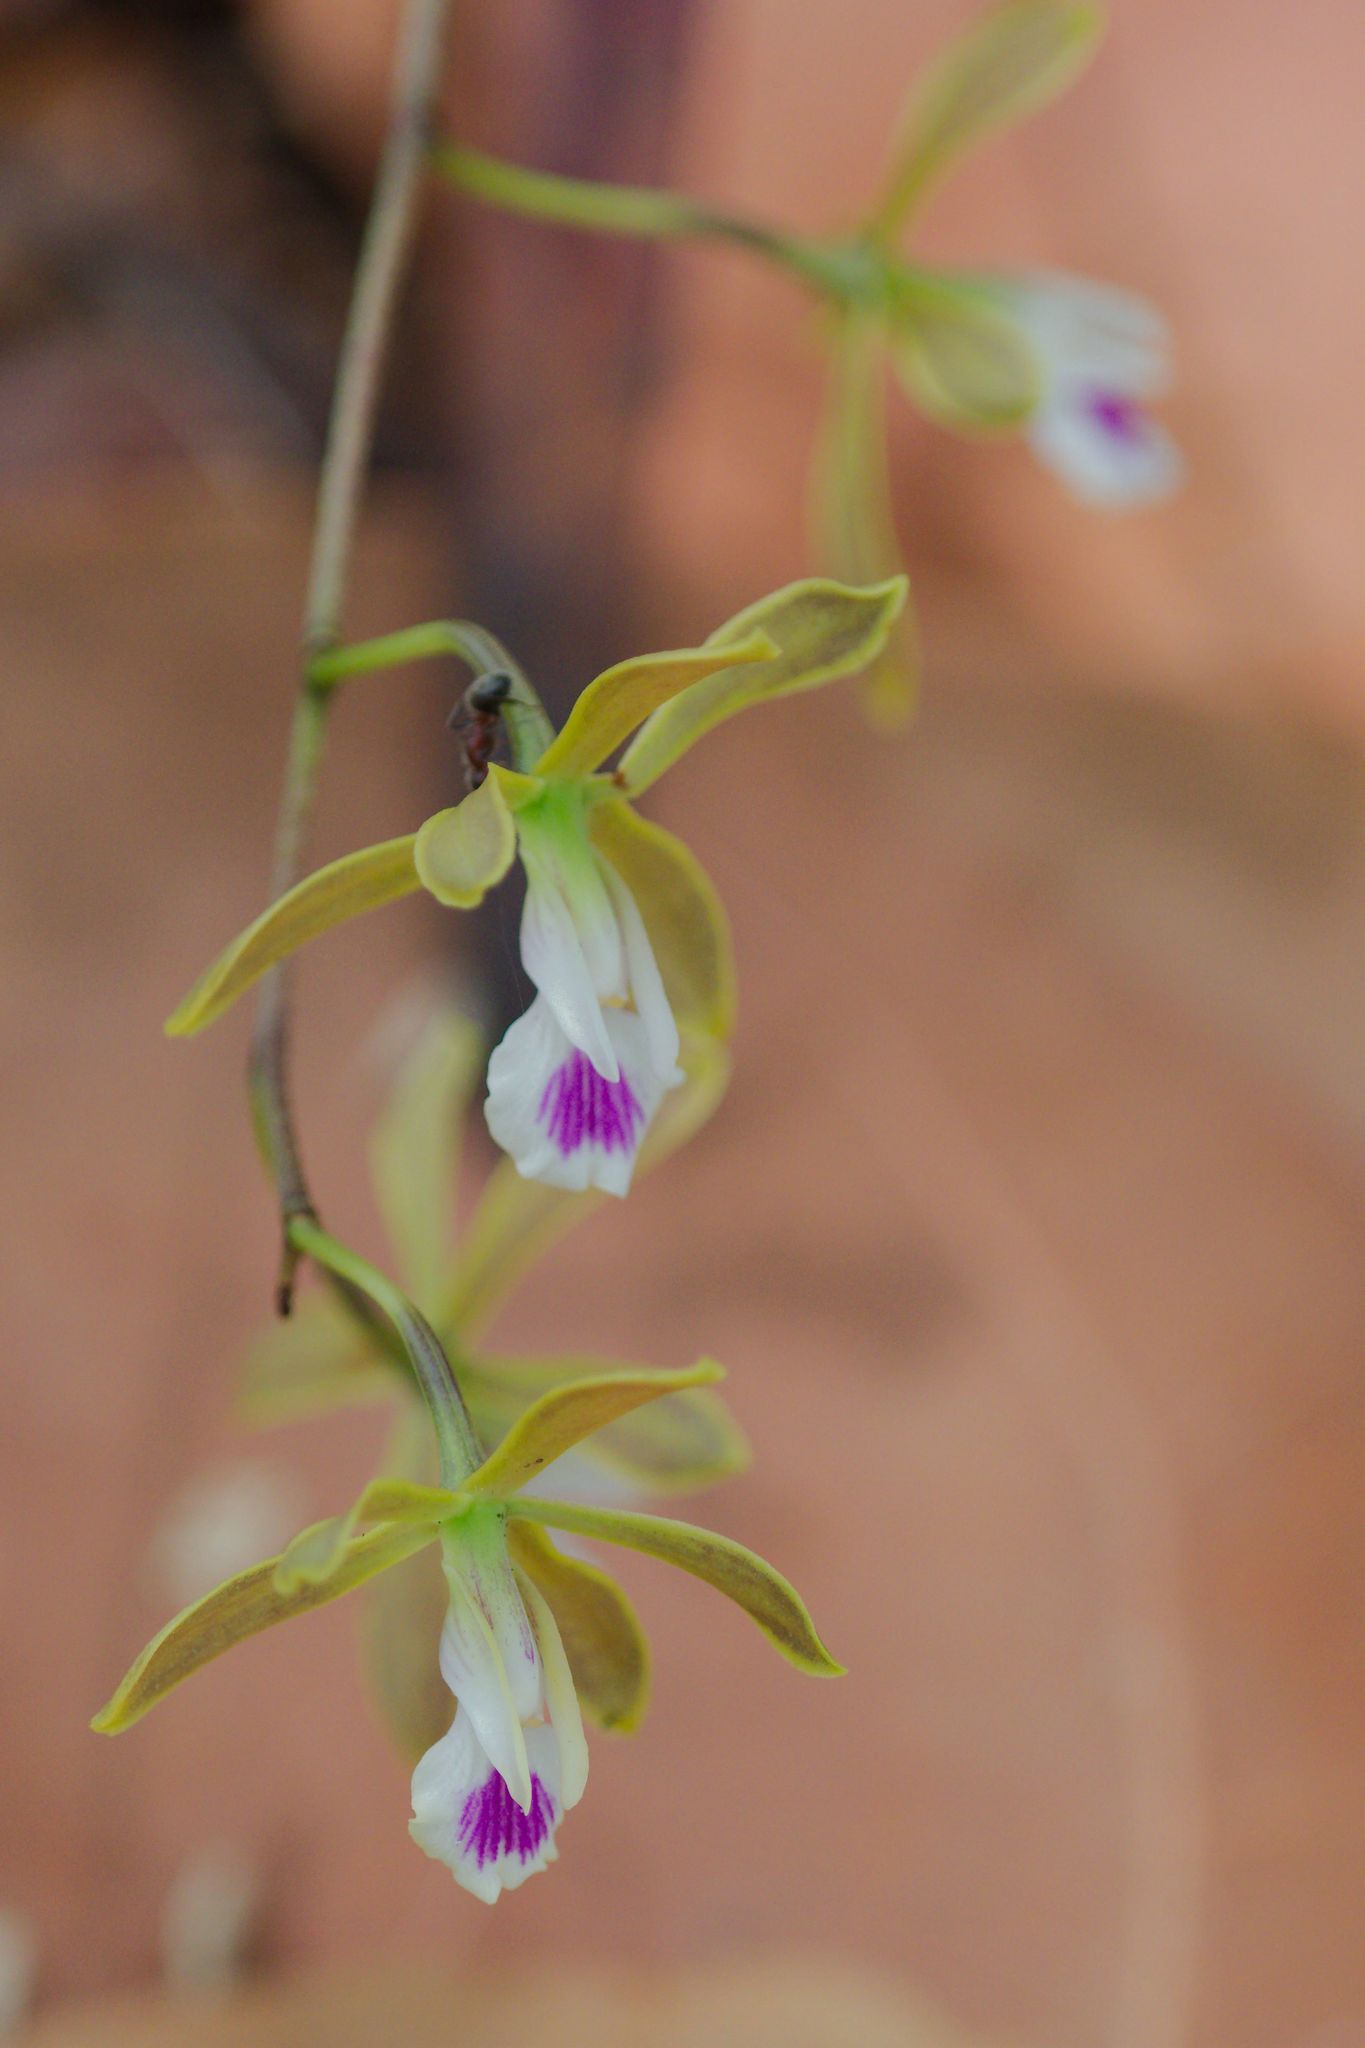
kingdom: Plantae
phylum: Tracheophyta
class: Liliopsida
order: Asparagales
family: Orchidaceae
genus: Encyclia
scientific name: Encyclia tampensis
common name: Florida butterfly orchid
